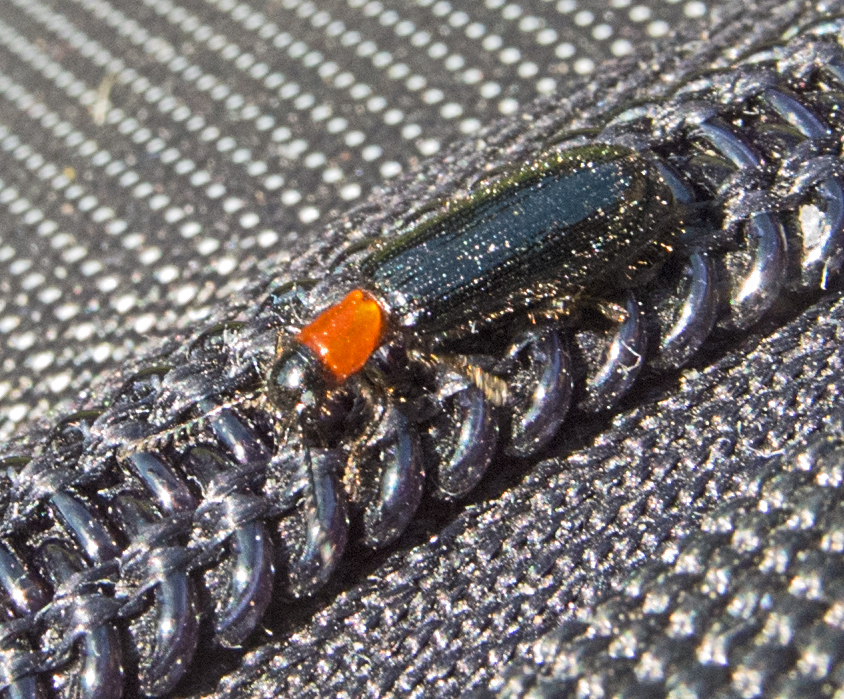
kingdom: Animalia
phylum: Arthropoda
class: Insecta
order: Coleoptera
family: Cleridae
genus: Tillus
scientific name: Tillus elongatus
